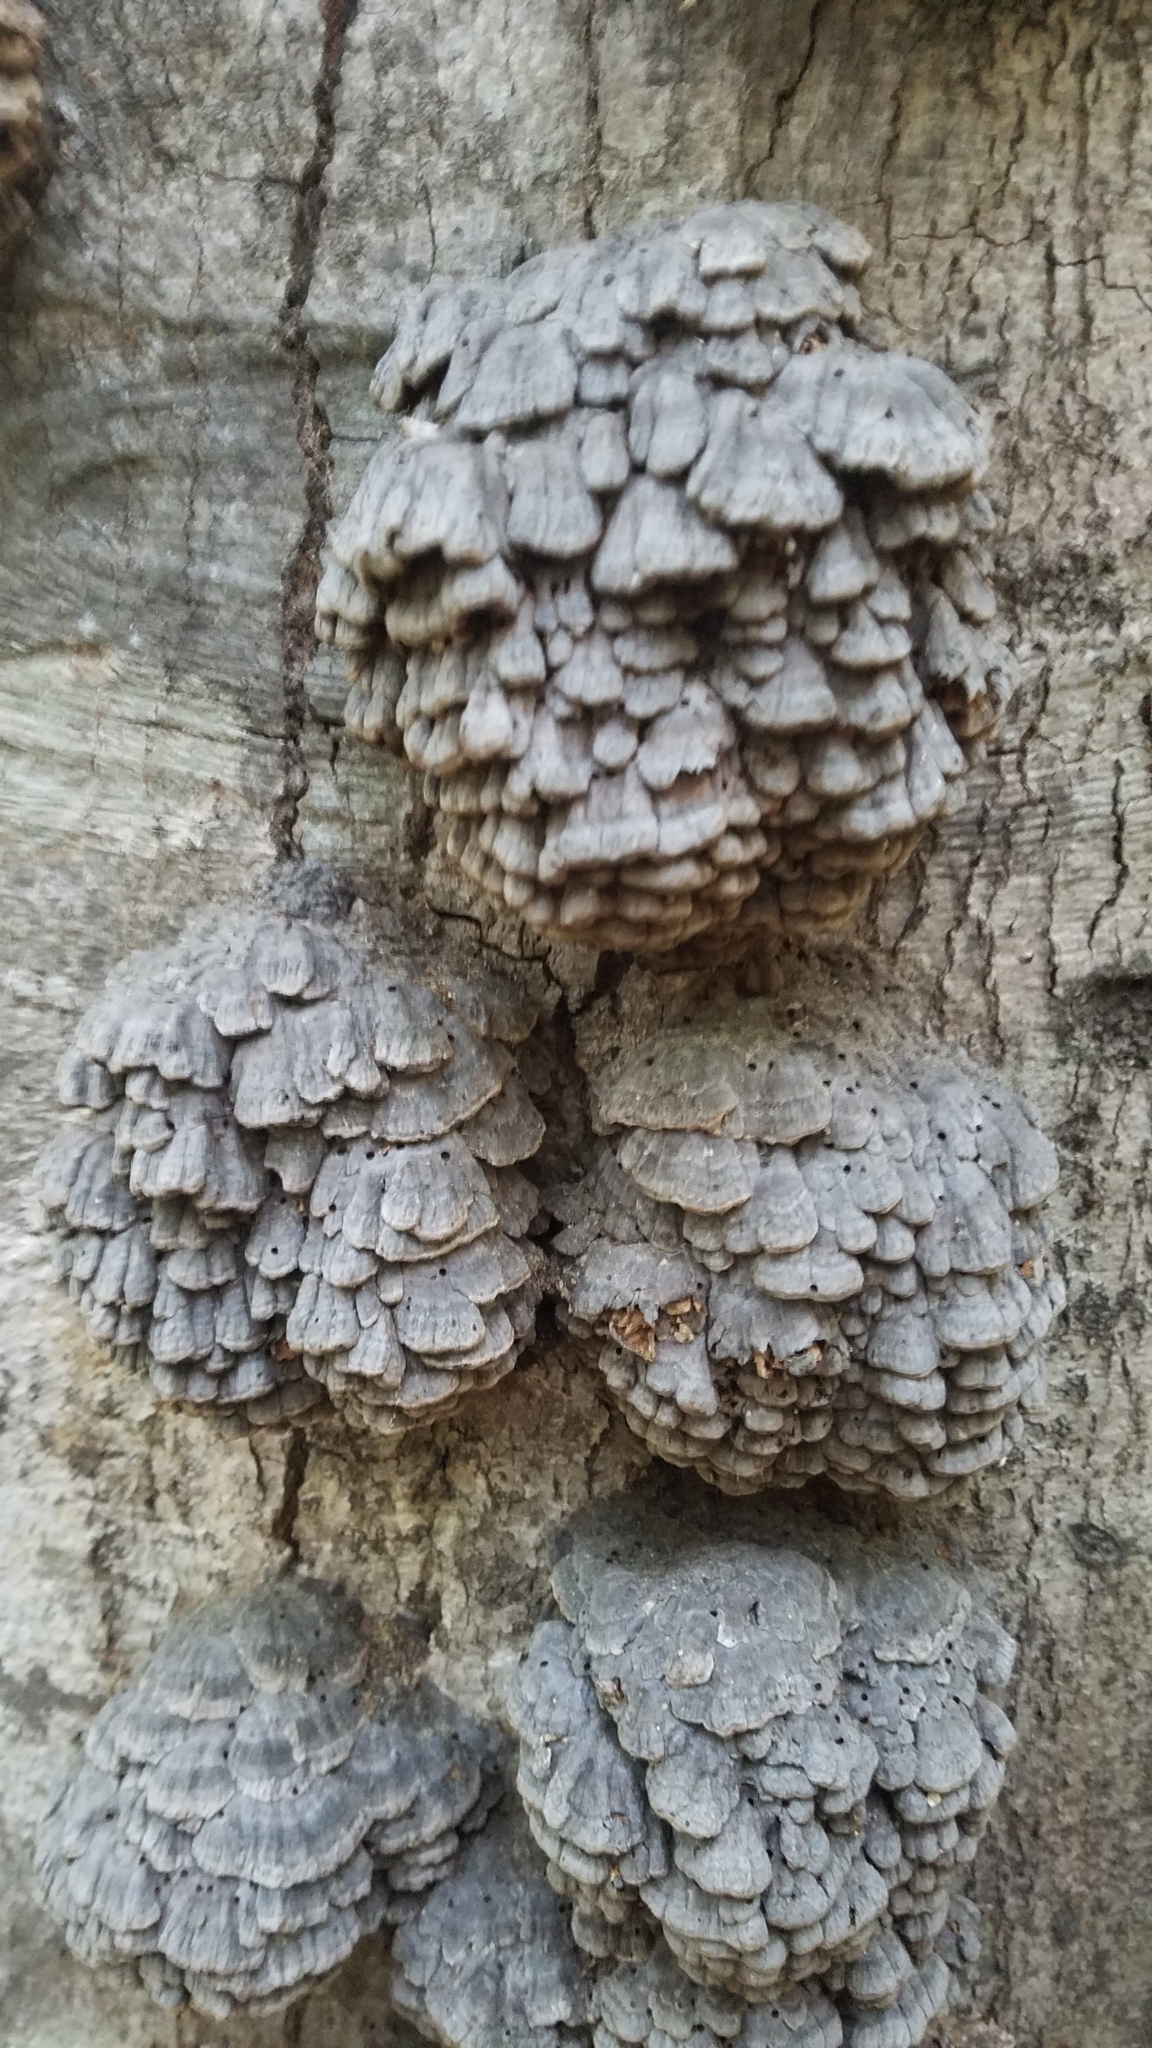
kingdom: Fungi
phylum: Basidiomycota
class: Agaricomycetes
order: Polyporales
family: Polyporaceae
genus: Globifomes
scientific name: Globifomes graveolens
